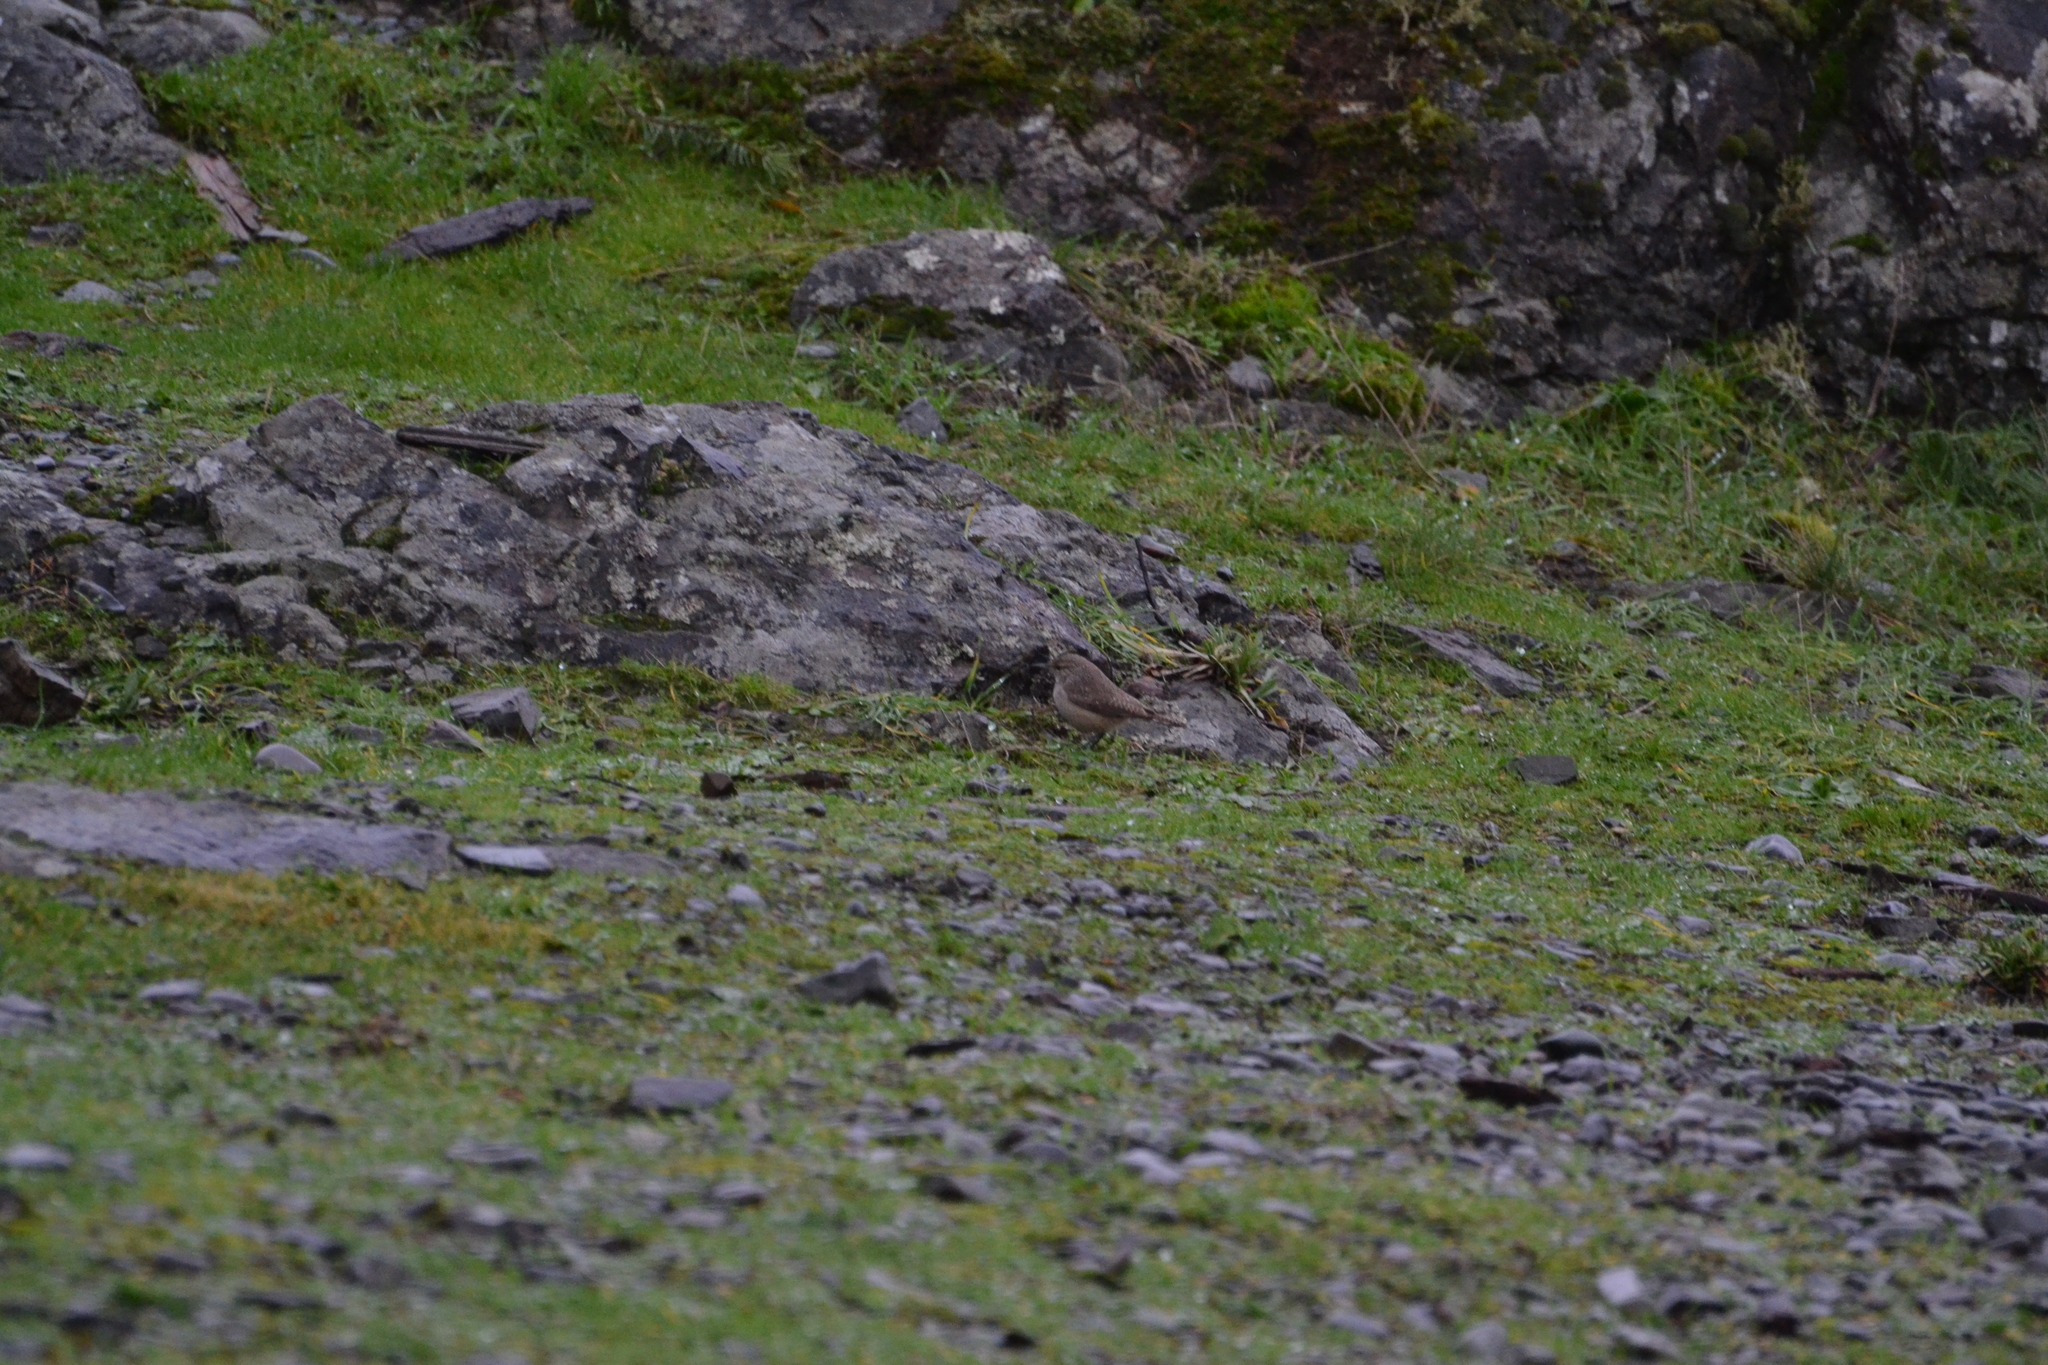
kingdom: Animalia
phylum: Chordata
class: Aves
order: Passeriformes
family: Troglodytidae
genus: Salpinctes
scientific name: Salpinctes obsoletus
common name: Rock wren
